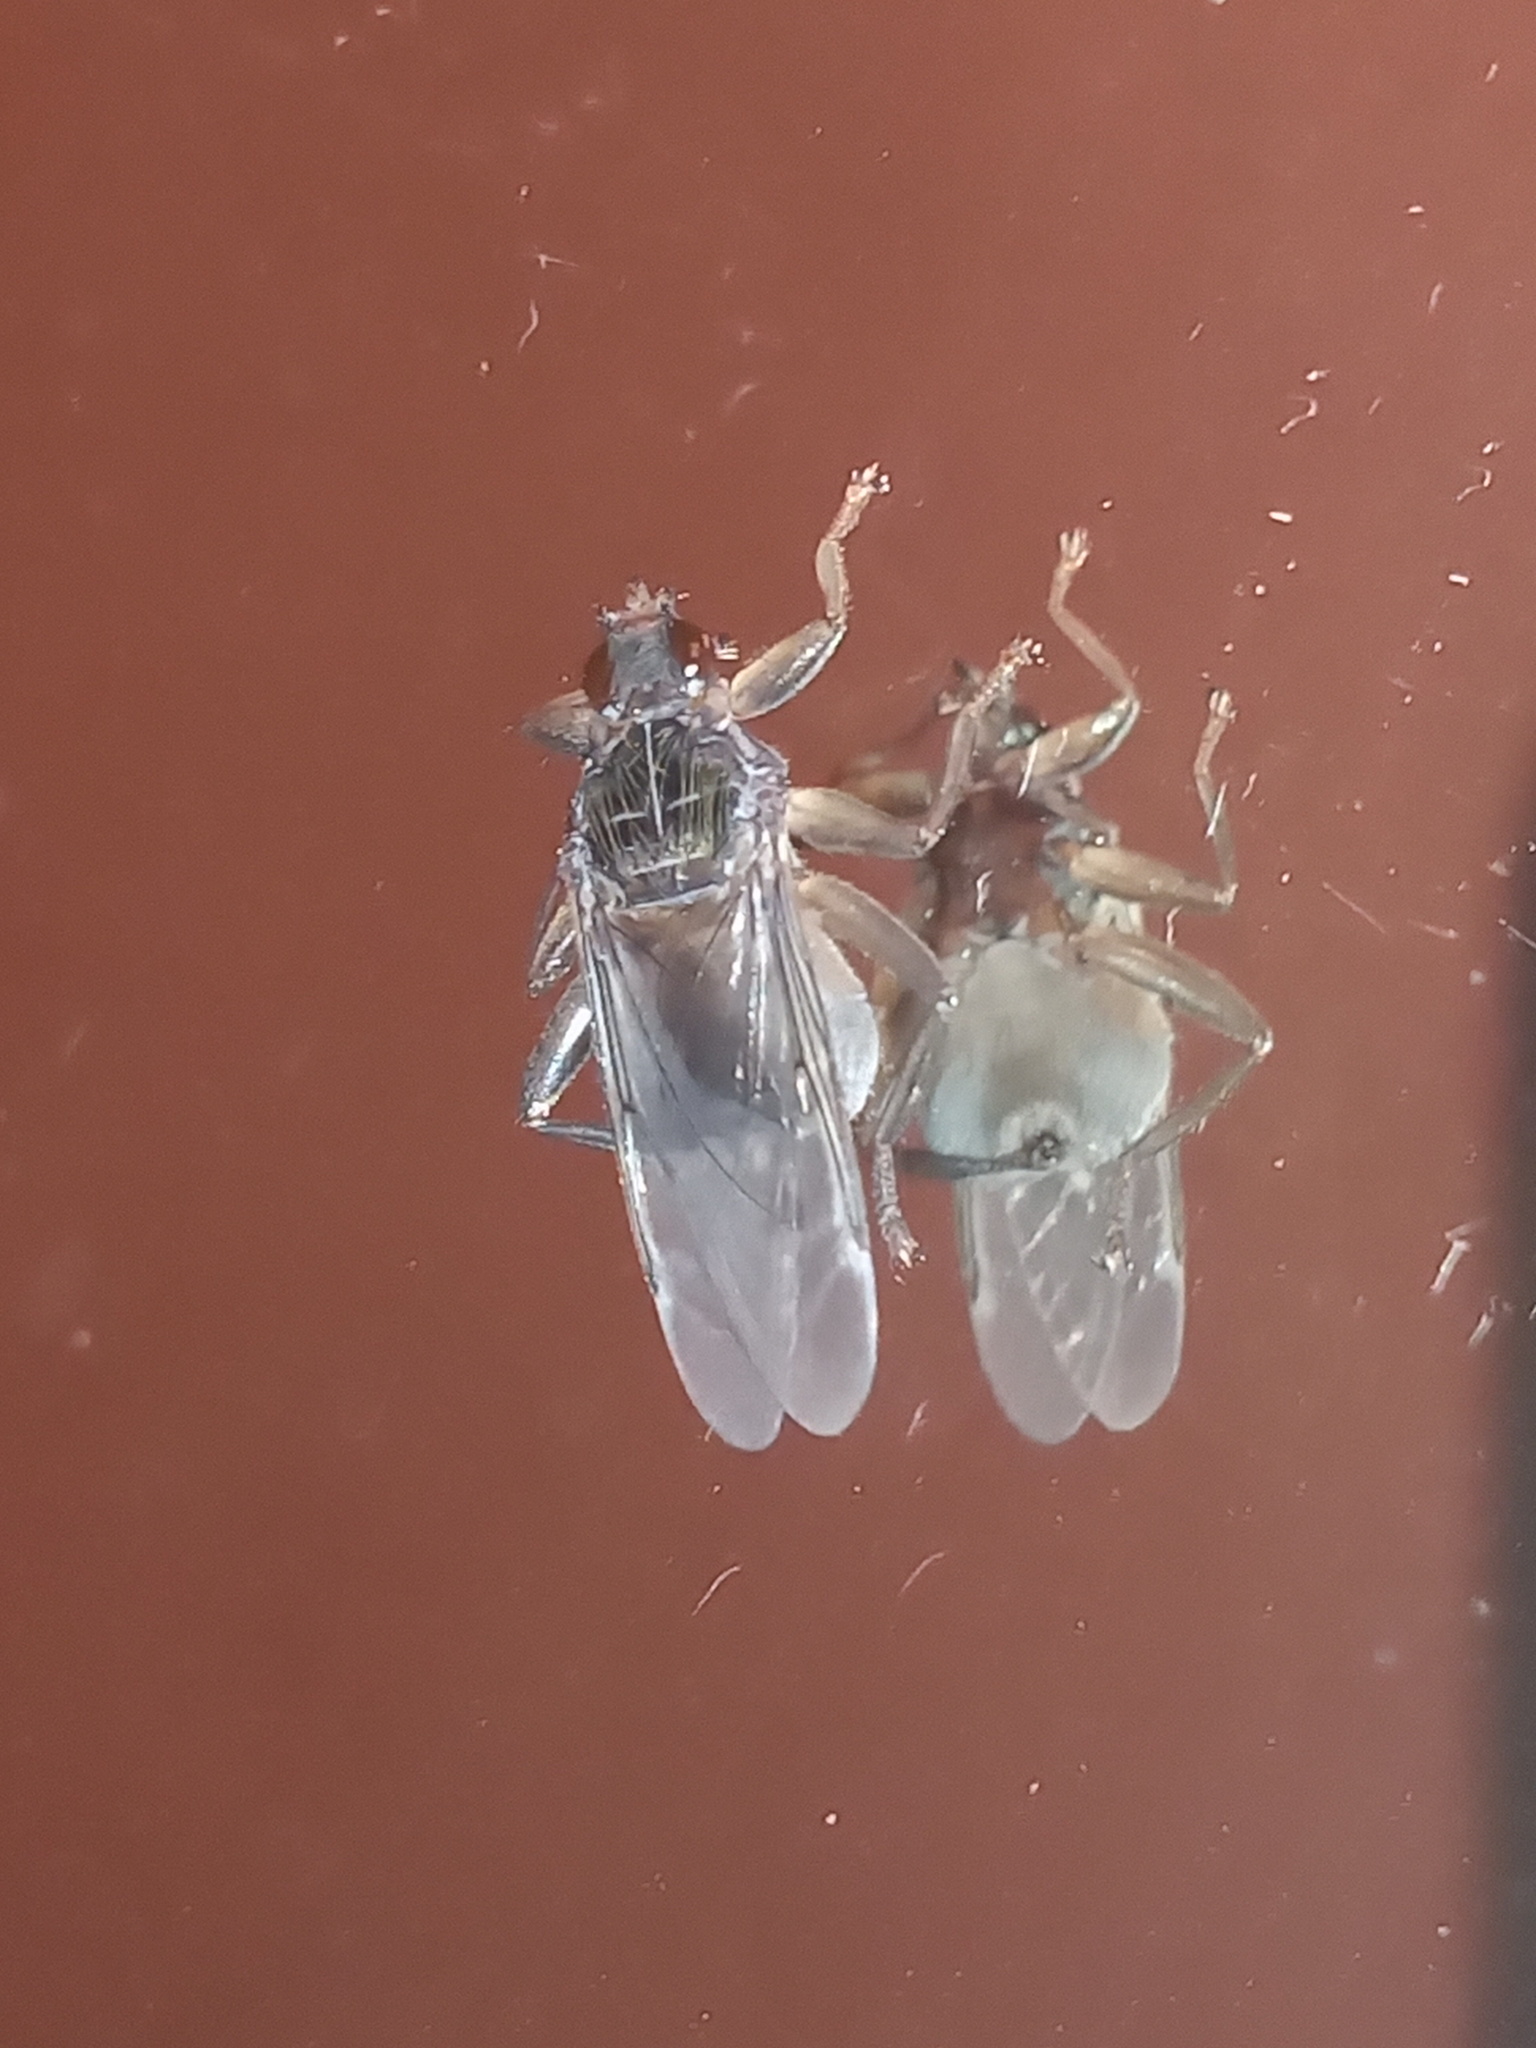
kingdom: Animalia
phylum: Arthropoda
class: Insecta
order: Diptera
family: Hippoboscidae
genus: Pseudolynchia
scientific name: Pseudolynchia canariensis
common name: Louse fly
